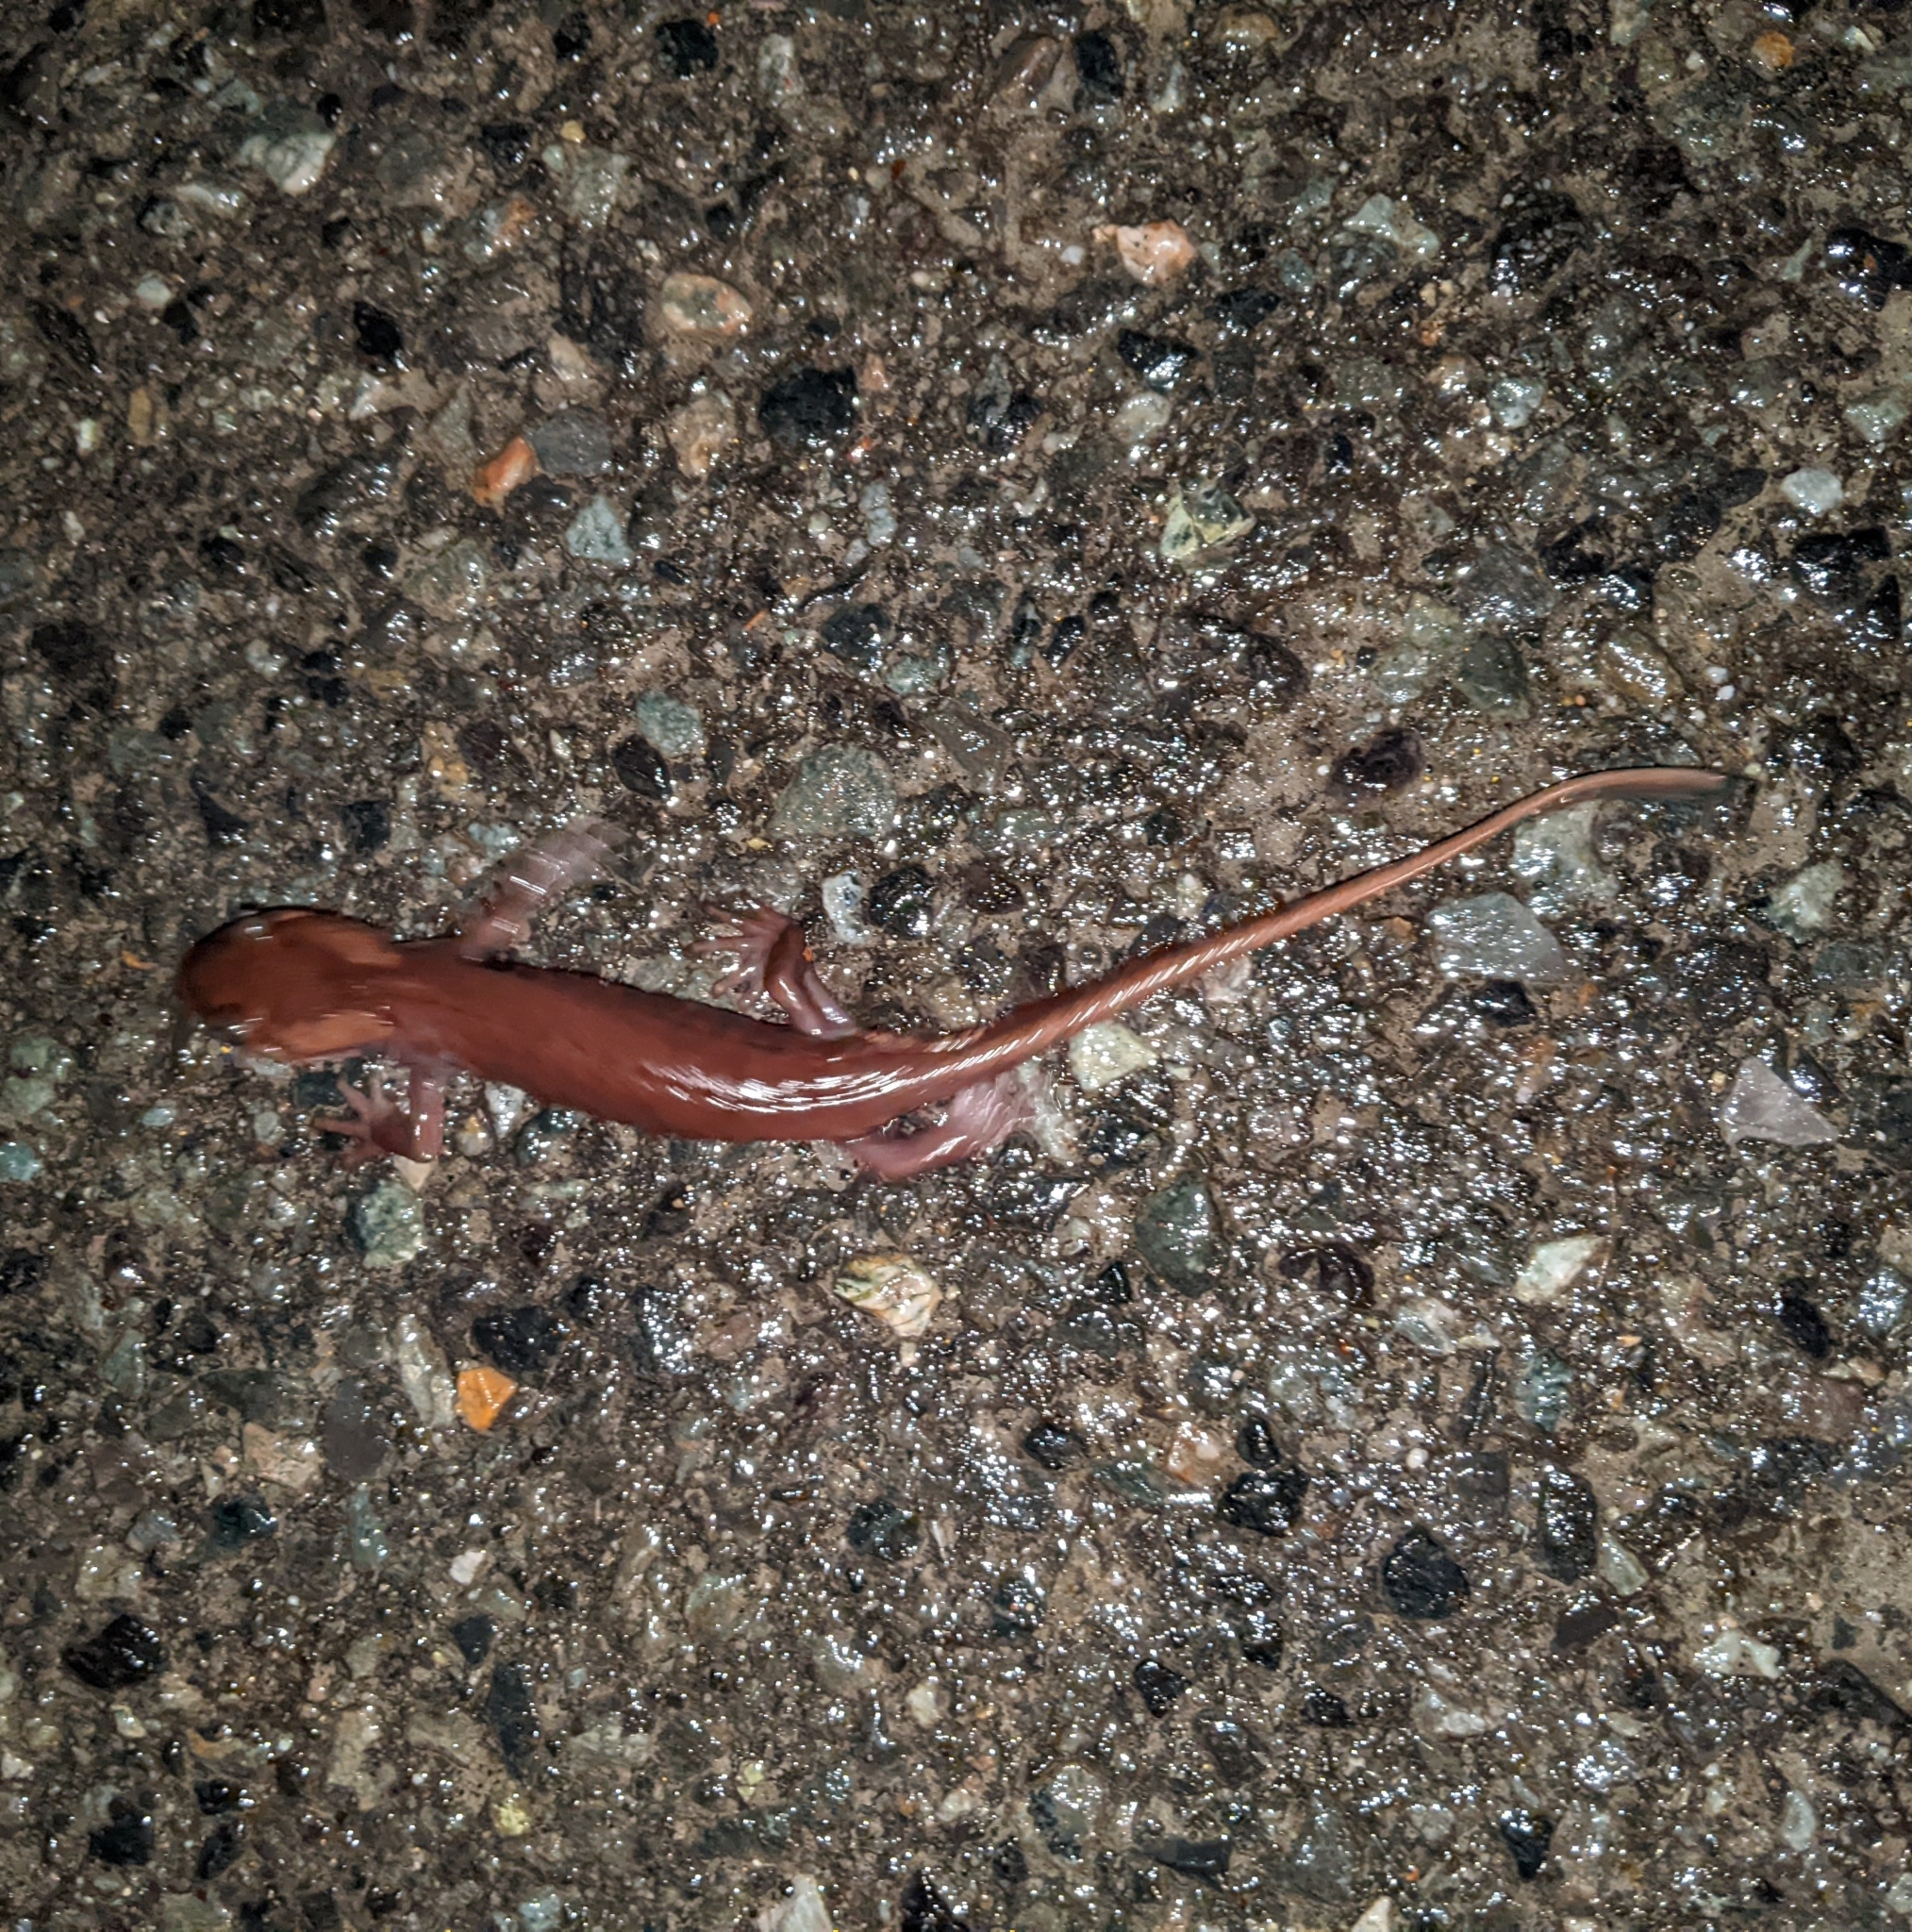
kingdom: Animalia
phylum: Chordata
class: Amphibia
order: Caudata
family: Ambystomatidae
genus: Ambystoma
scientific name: Ambystoma gracile
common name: Northwestern salamander
